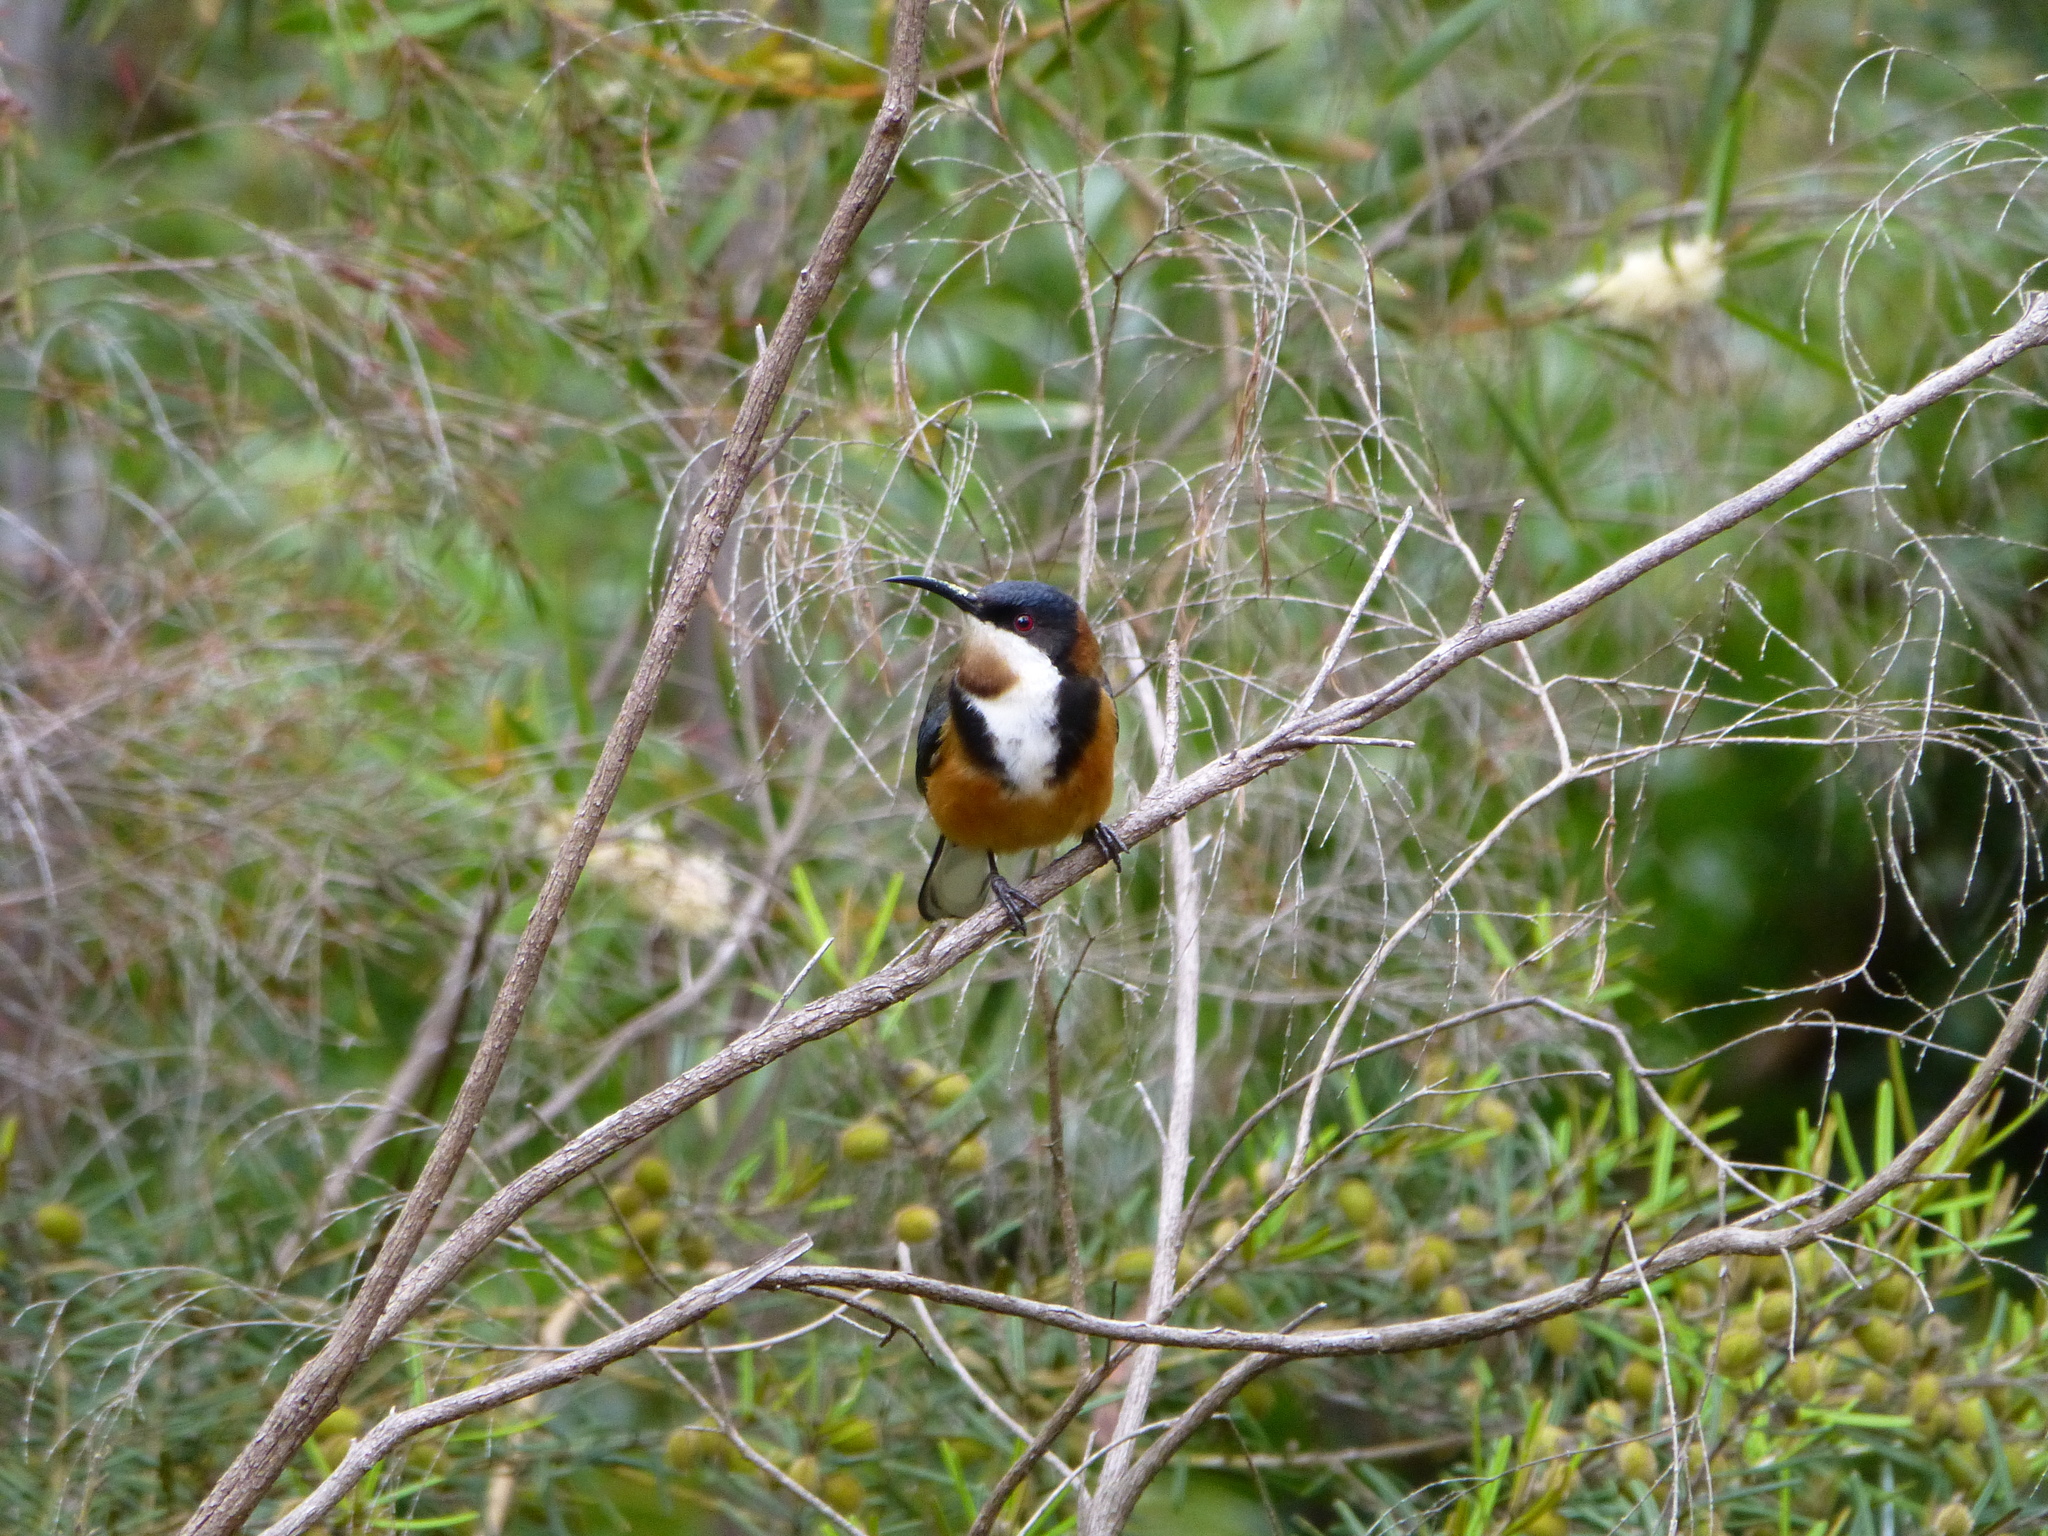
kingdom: Animalia
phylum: Chordata
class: Aves
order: Passeriformes
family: Meliphagidae
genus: Acanthorhynchus
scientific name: Acanthorhynchus tenuirostris
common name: Eastern spinebill
